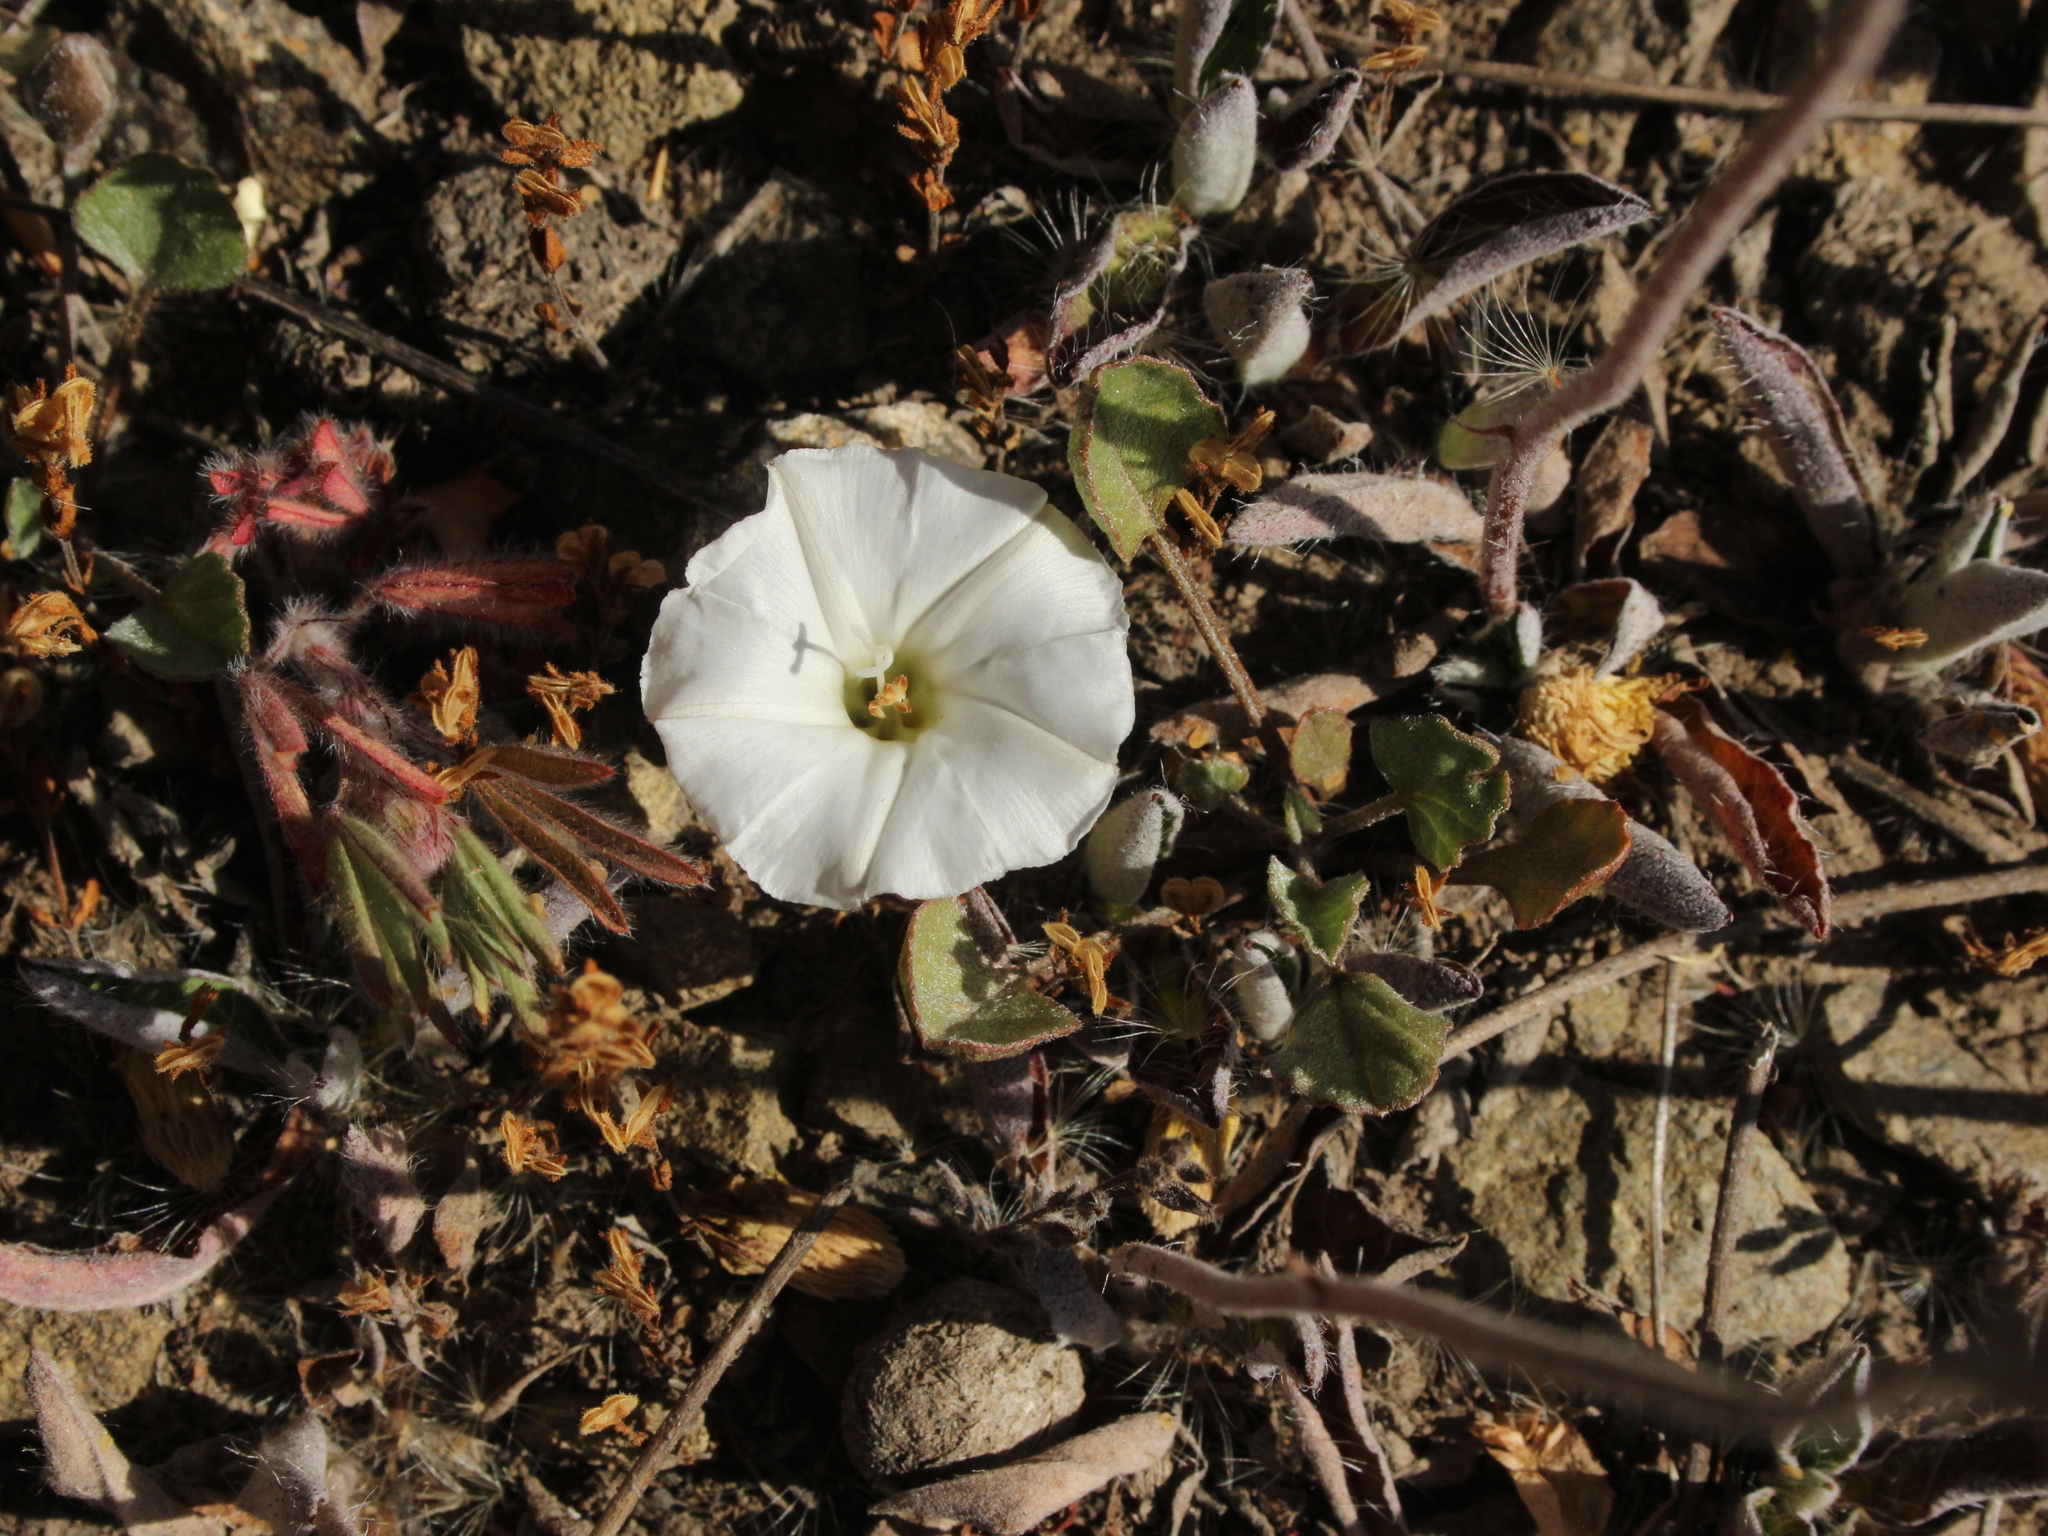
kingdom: Plantae
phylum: Tracheophyta
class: Magnoliopsida
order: Solanales
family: Convolvulaceae
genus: Convolvulus
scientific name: Convolvulus waitaha
